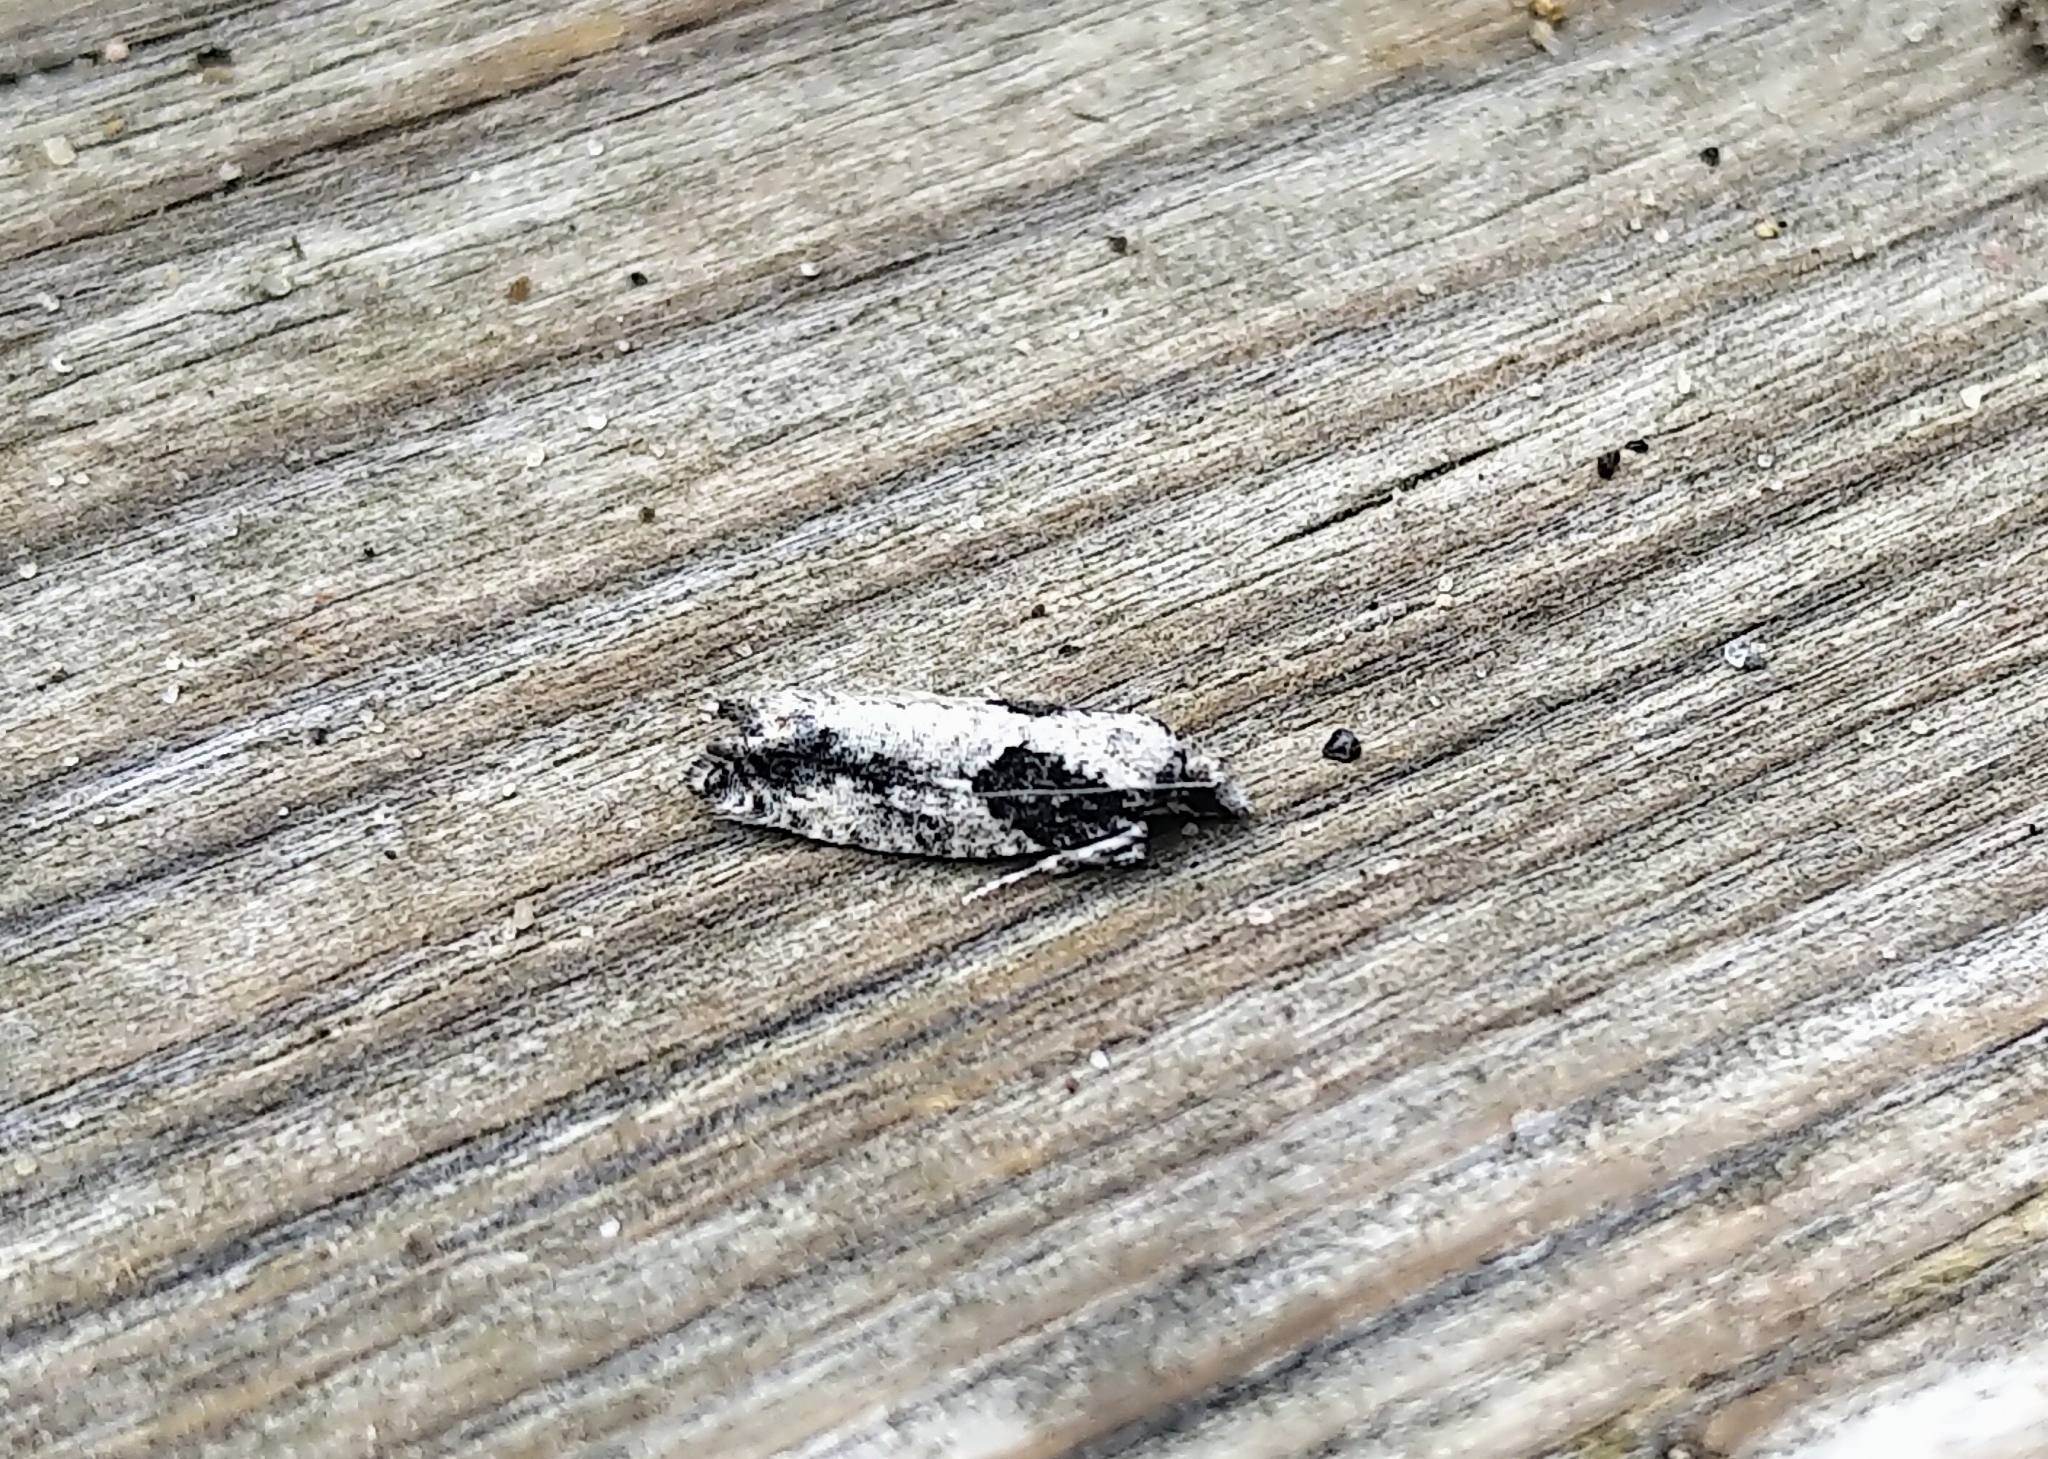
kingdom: Animalia
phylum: Arthropoda
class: Insecta
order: Lepidoptera
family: Tortricidae
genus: Epinotia
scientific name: Epinotia cinereana
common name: Grey aspen bell
